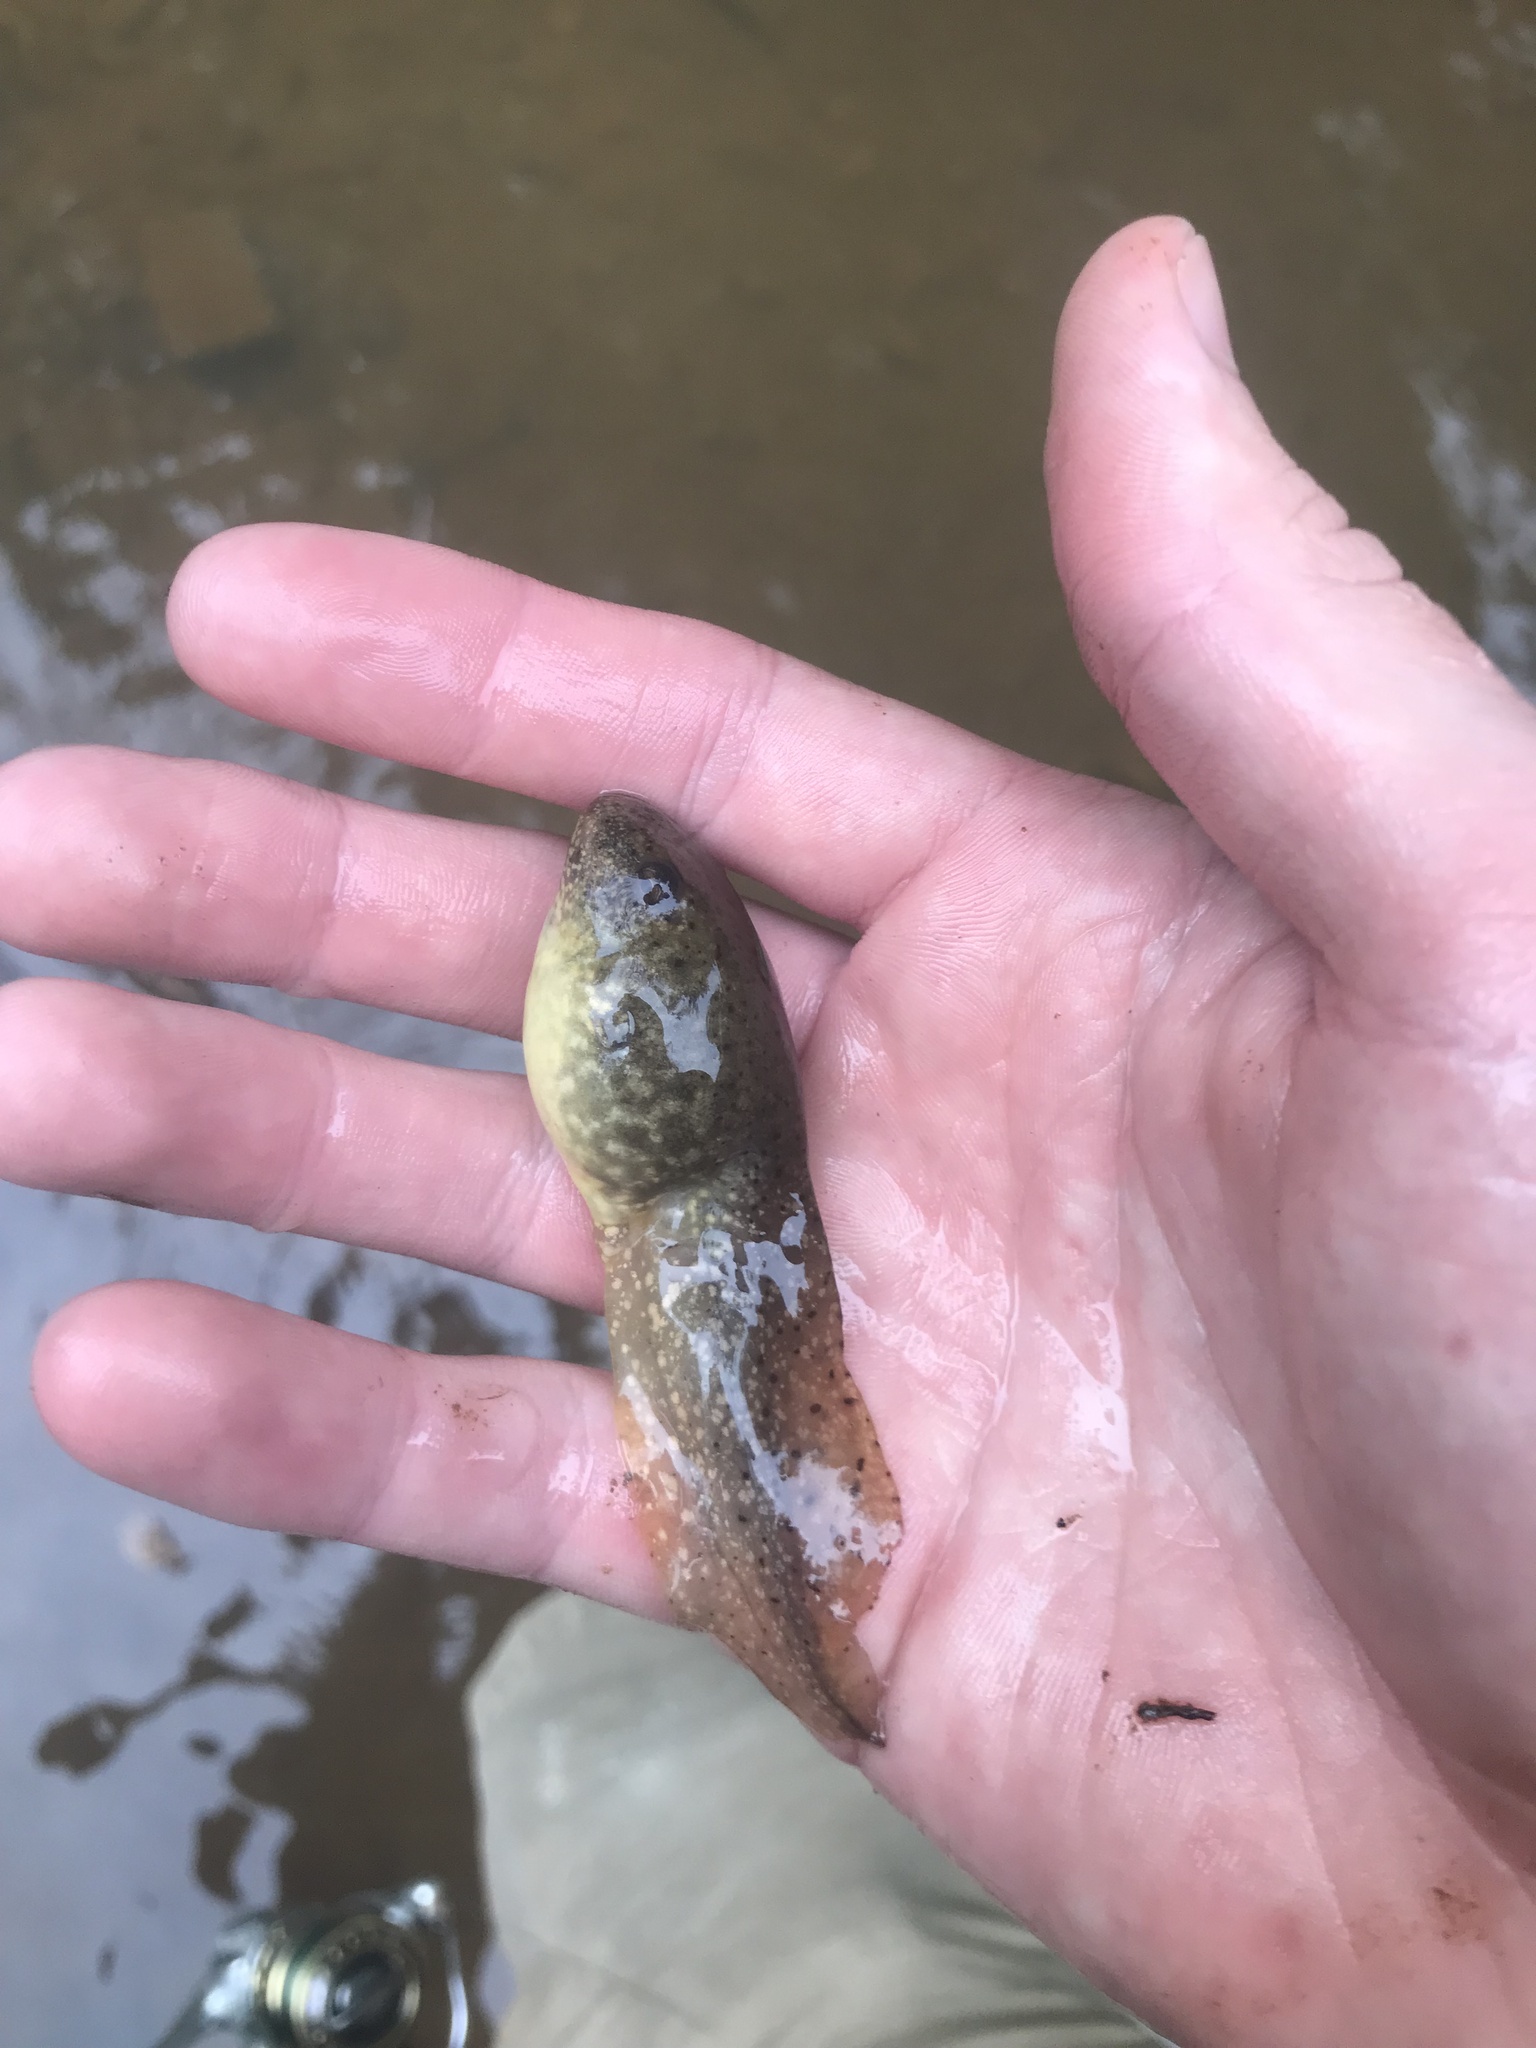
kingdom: Animalia
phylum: Chordata
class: Amphibia
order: Anura
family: Ranidae
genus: Lithobates
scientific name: Lithobates catesbeianus
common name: American bullfrog
